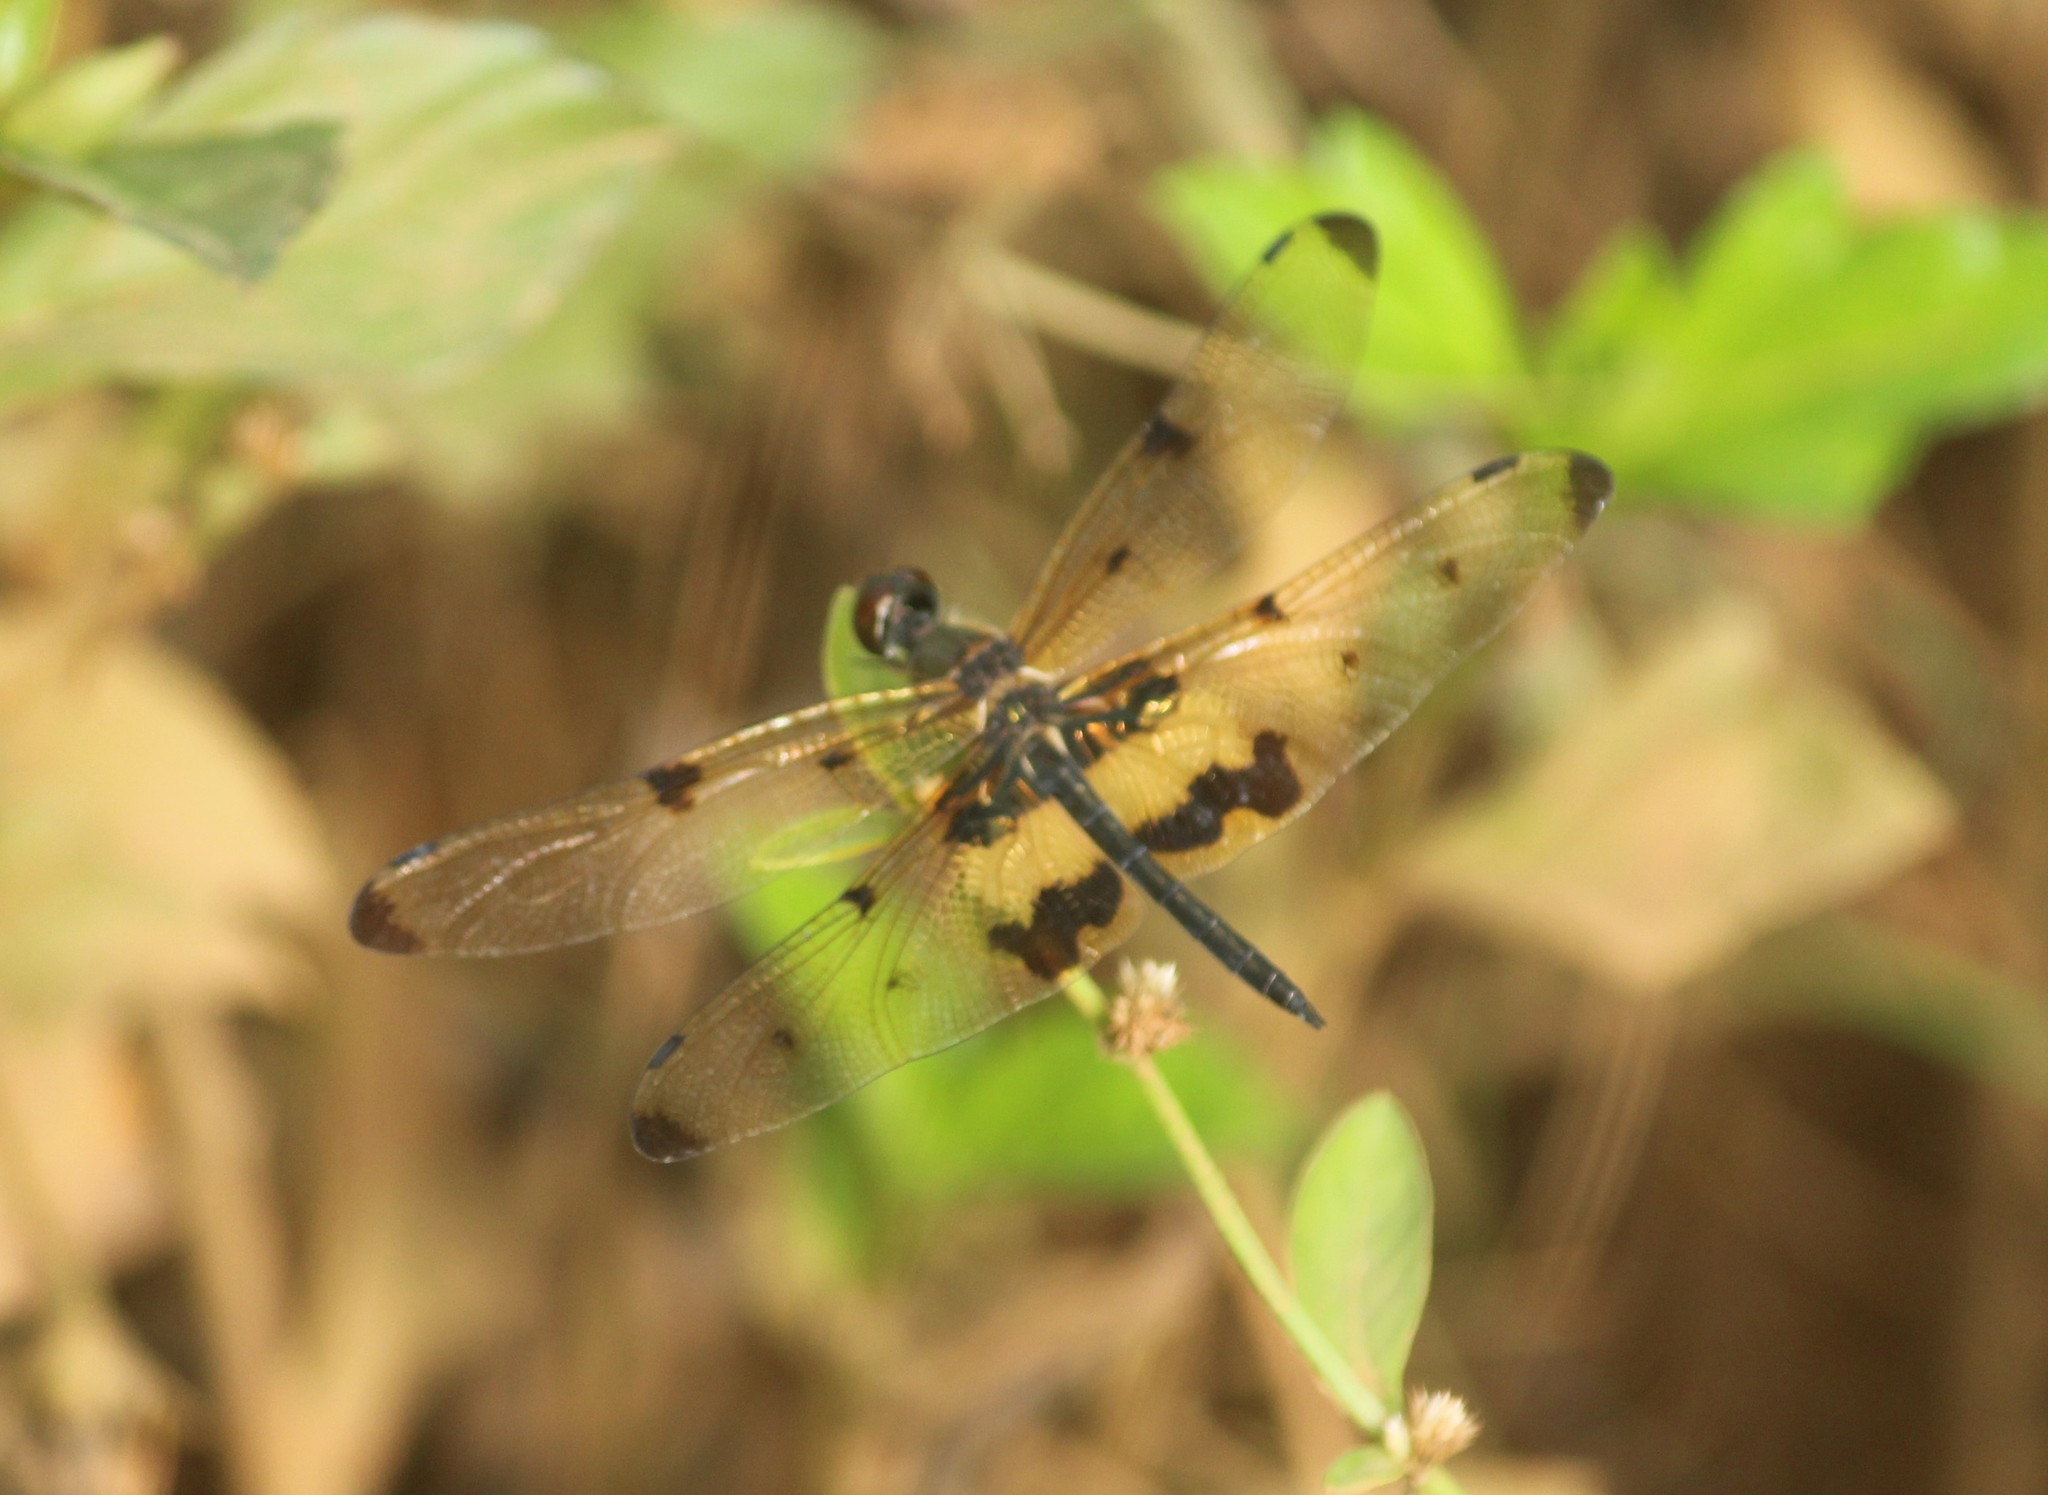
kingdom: Animalia
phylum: Arthropoda
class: Insecta
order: Odonata
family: Libellulidae
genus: Rhyothemis
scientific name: Rhyothemis variegata
